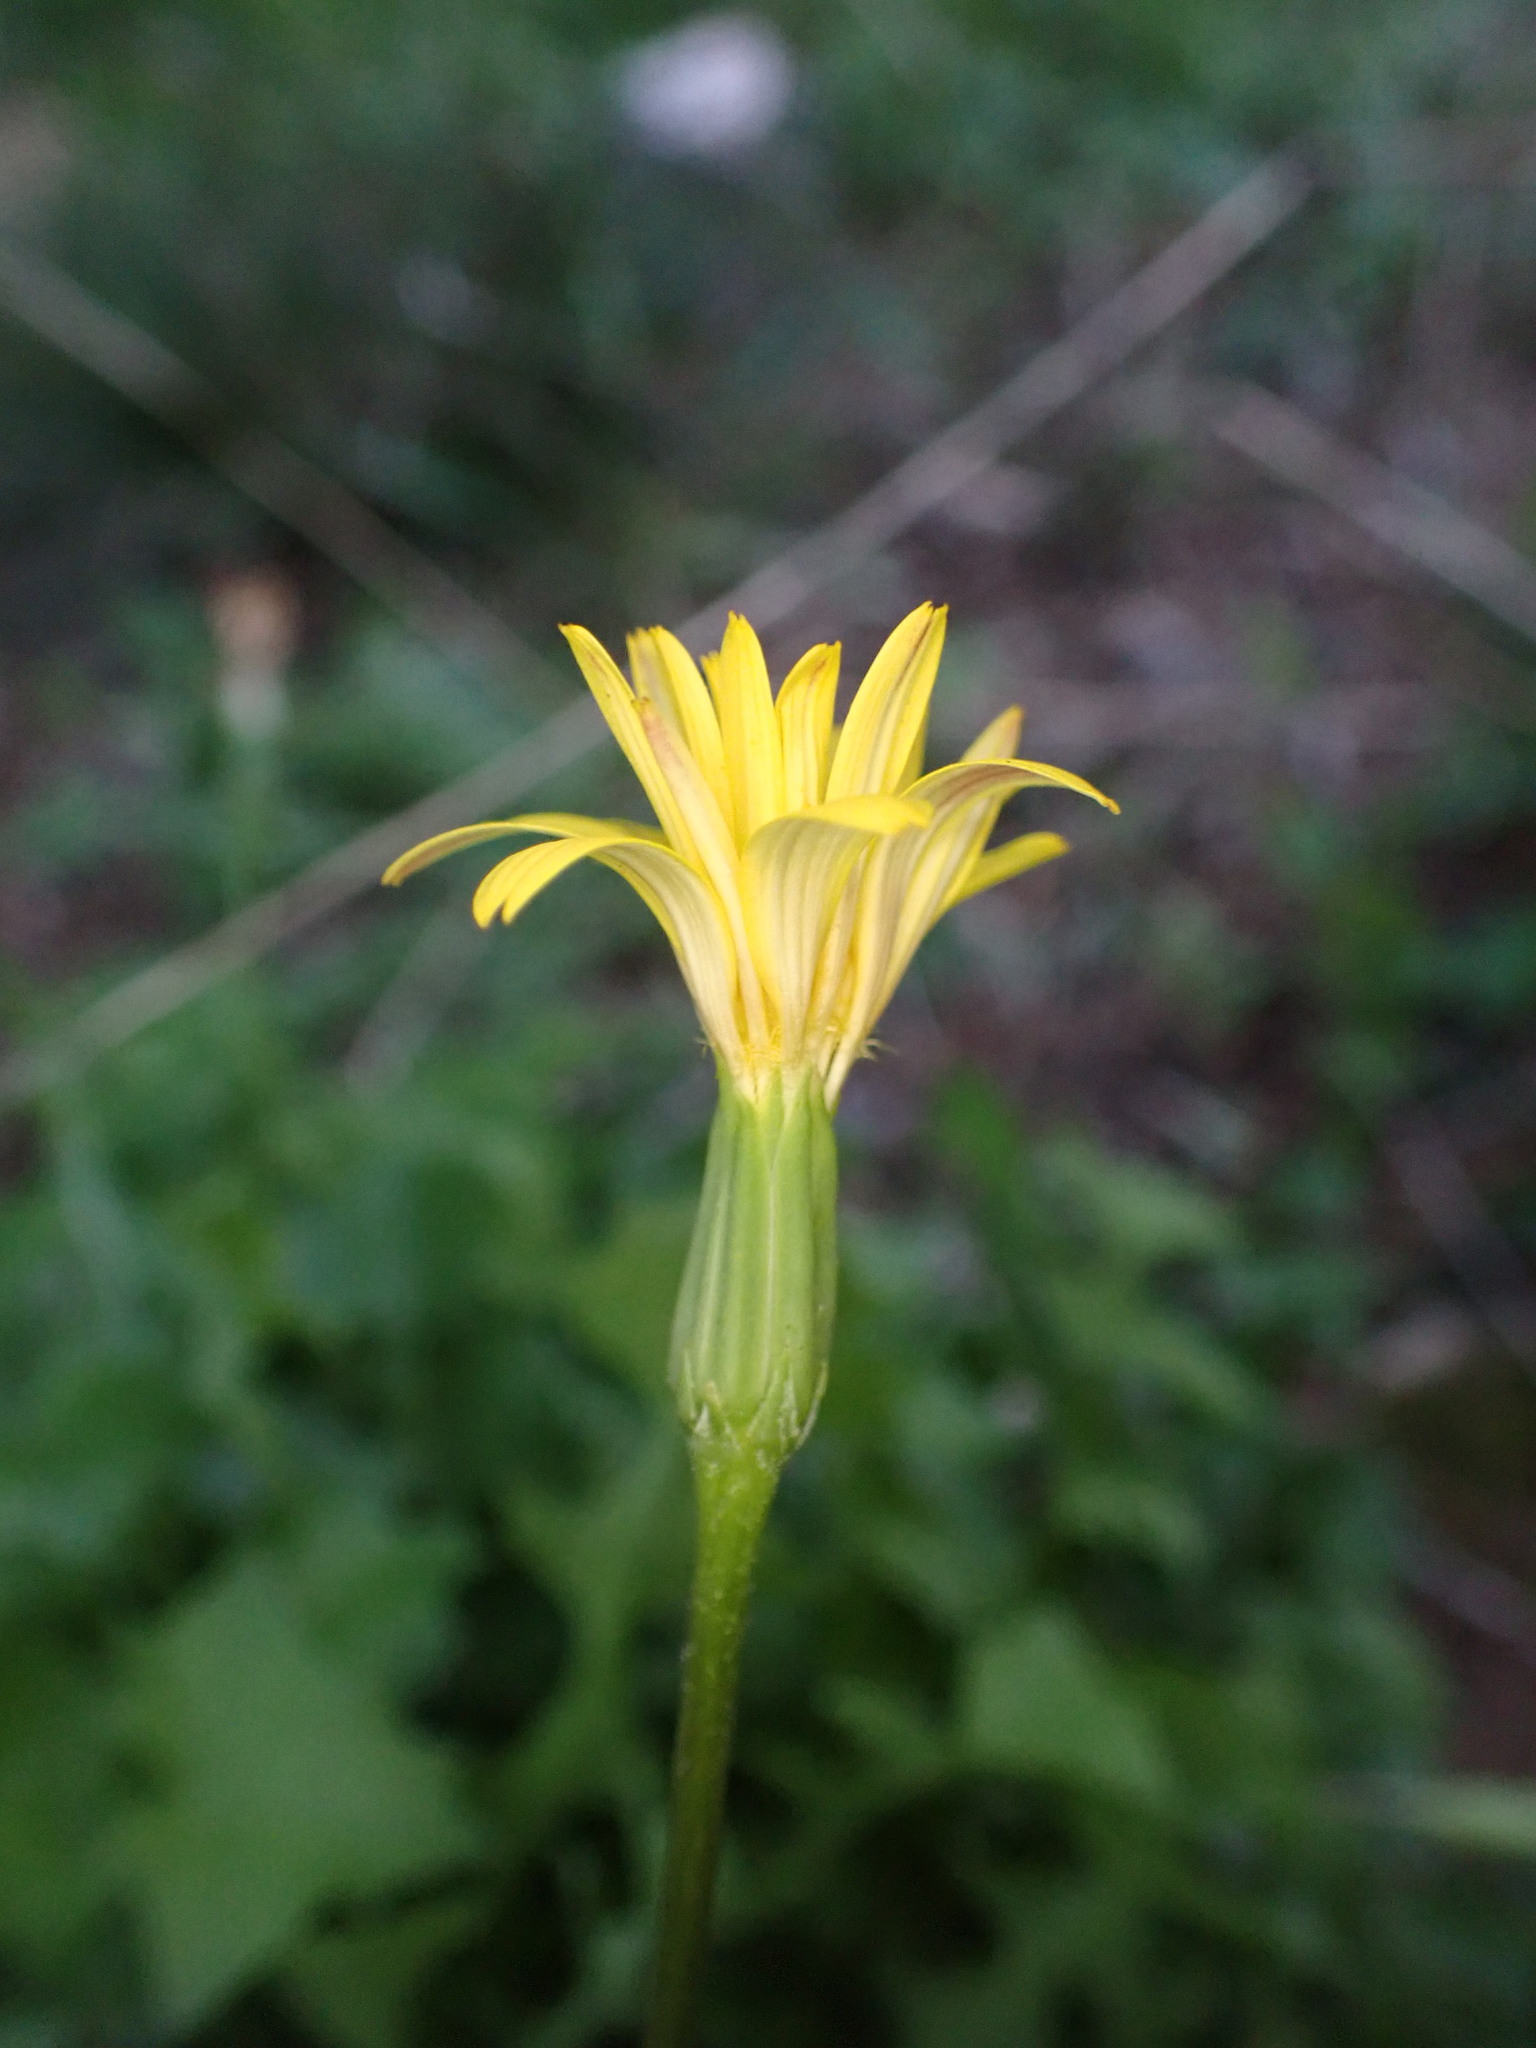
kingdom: Plantae
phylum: Tracheophyta
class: Magnoliopsida
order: Asterales
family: Asteraceae
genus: Hyoseris
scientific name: Hyoseris radiata
